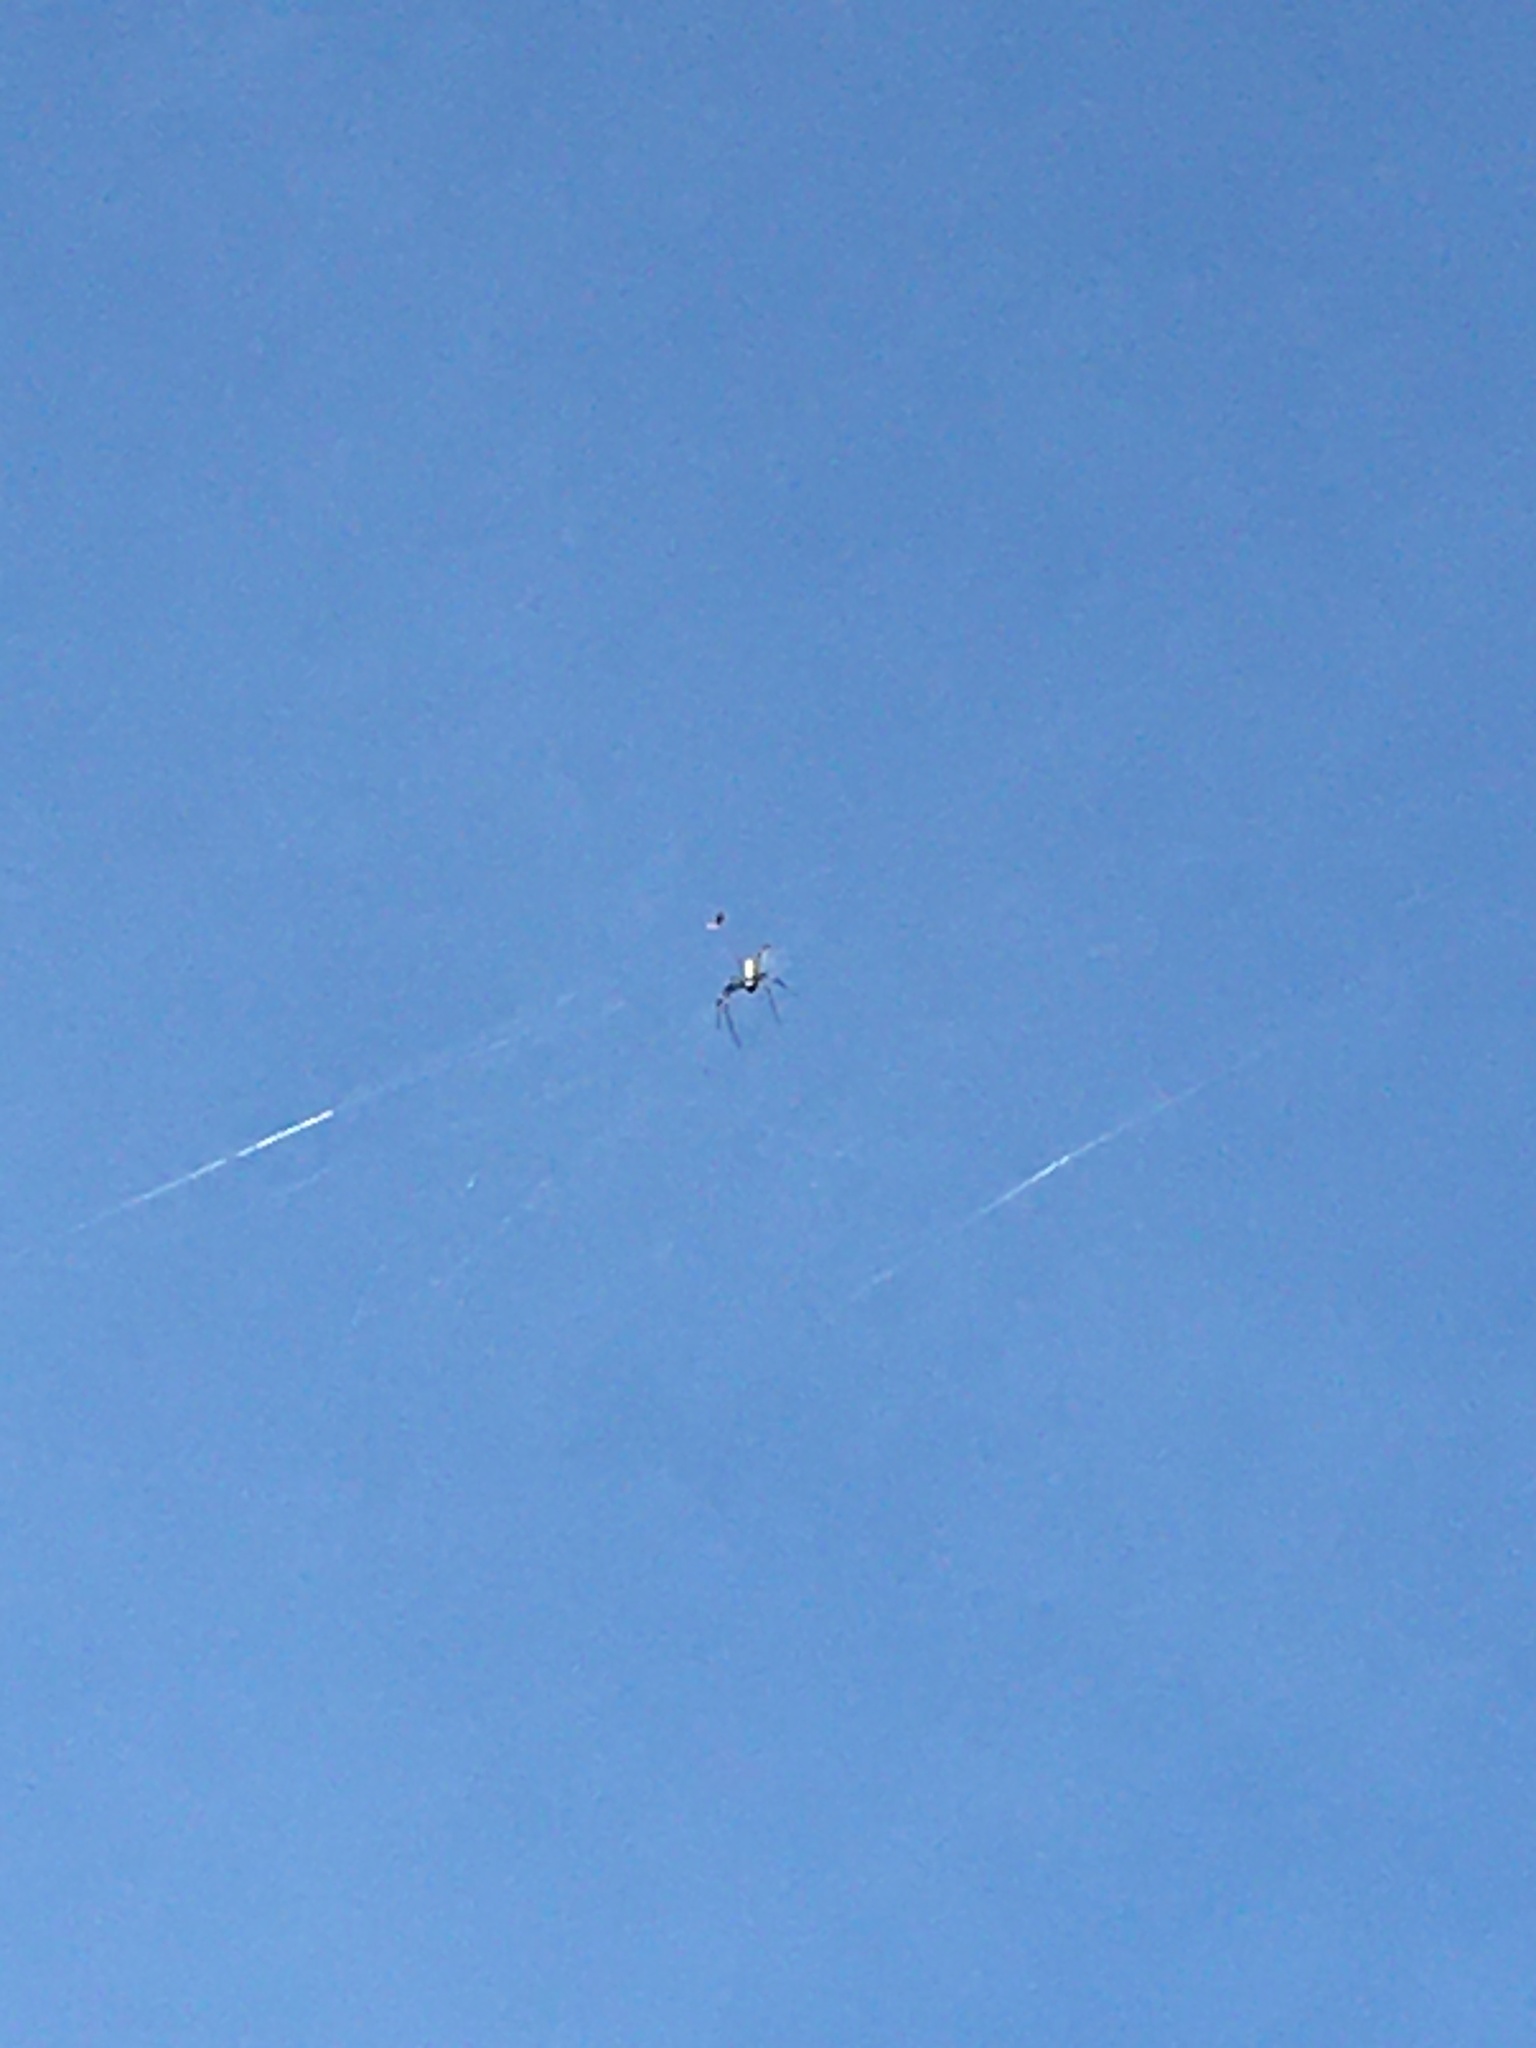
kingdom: Animalia
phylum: Arthropoda
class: Arachnida
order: Araneae
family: Araneidae
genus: Trichonephila
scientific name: Trichonephila clavipes
